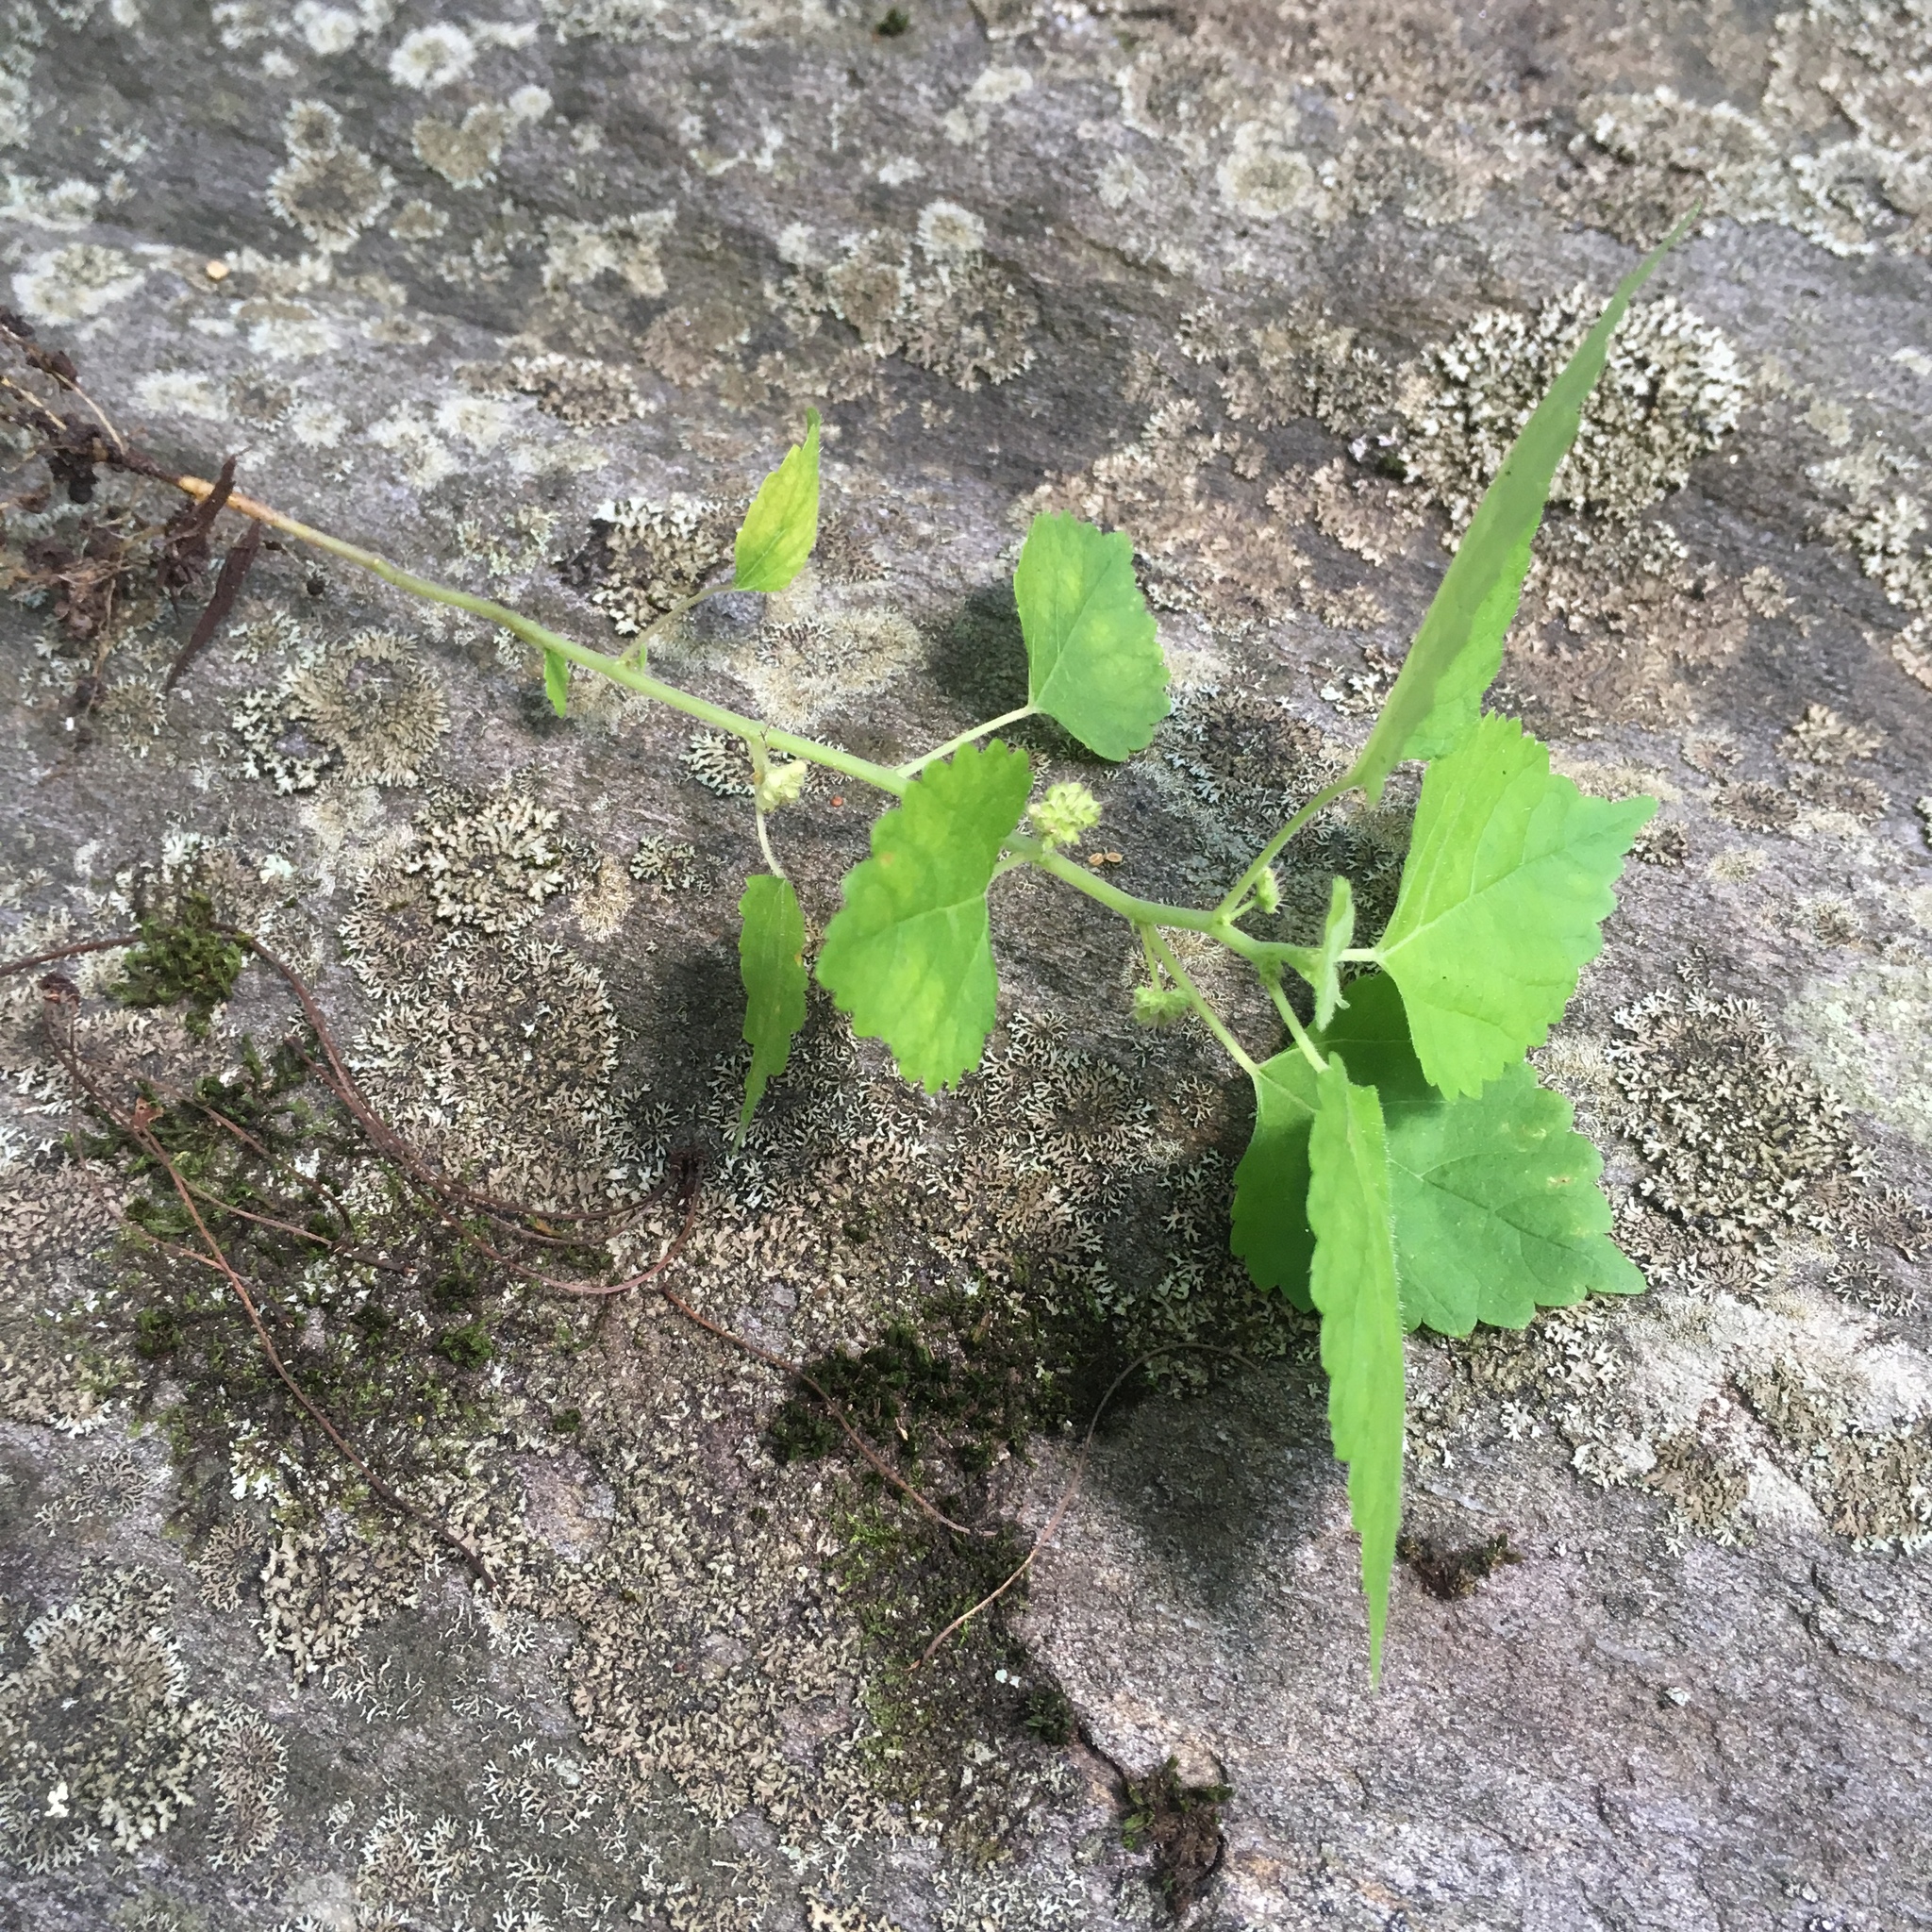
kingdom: Plantae
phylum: Tracheophyta
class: Magnoliopsida
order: Rosales
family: Moraceae
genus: Fatoua
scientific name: Fatoua villosa
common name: Hairy crabweed
